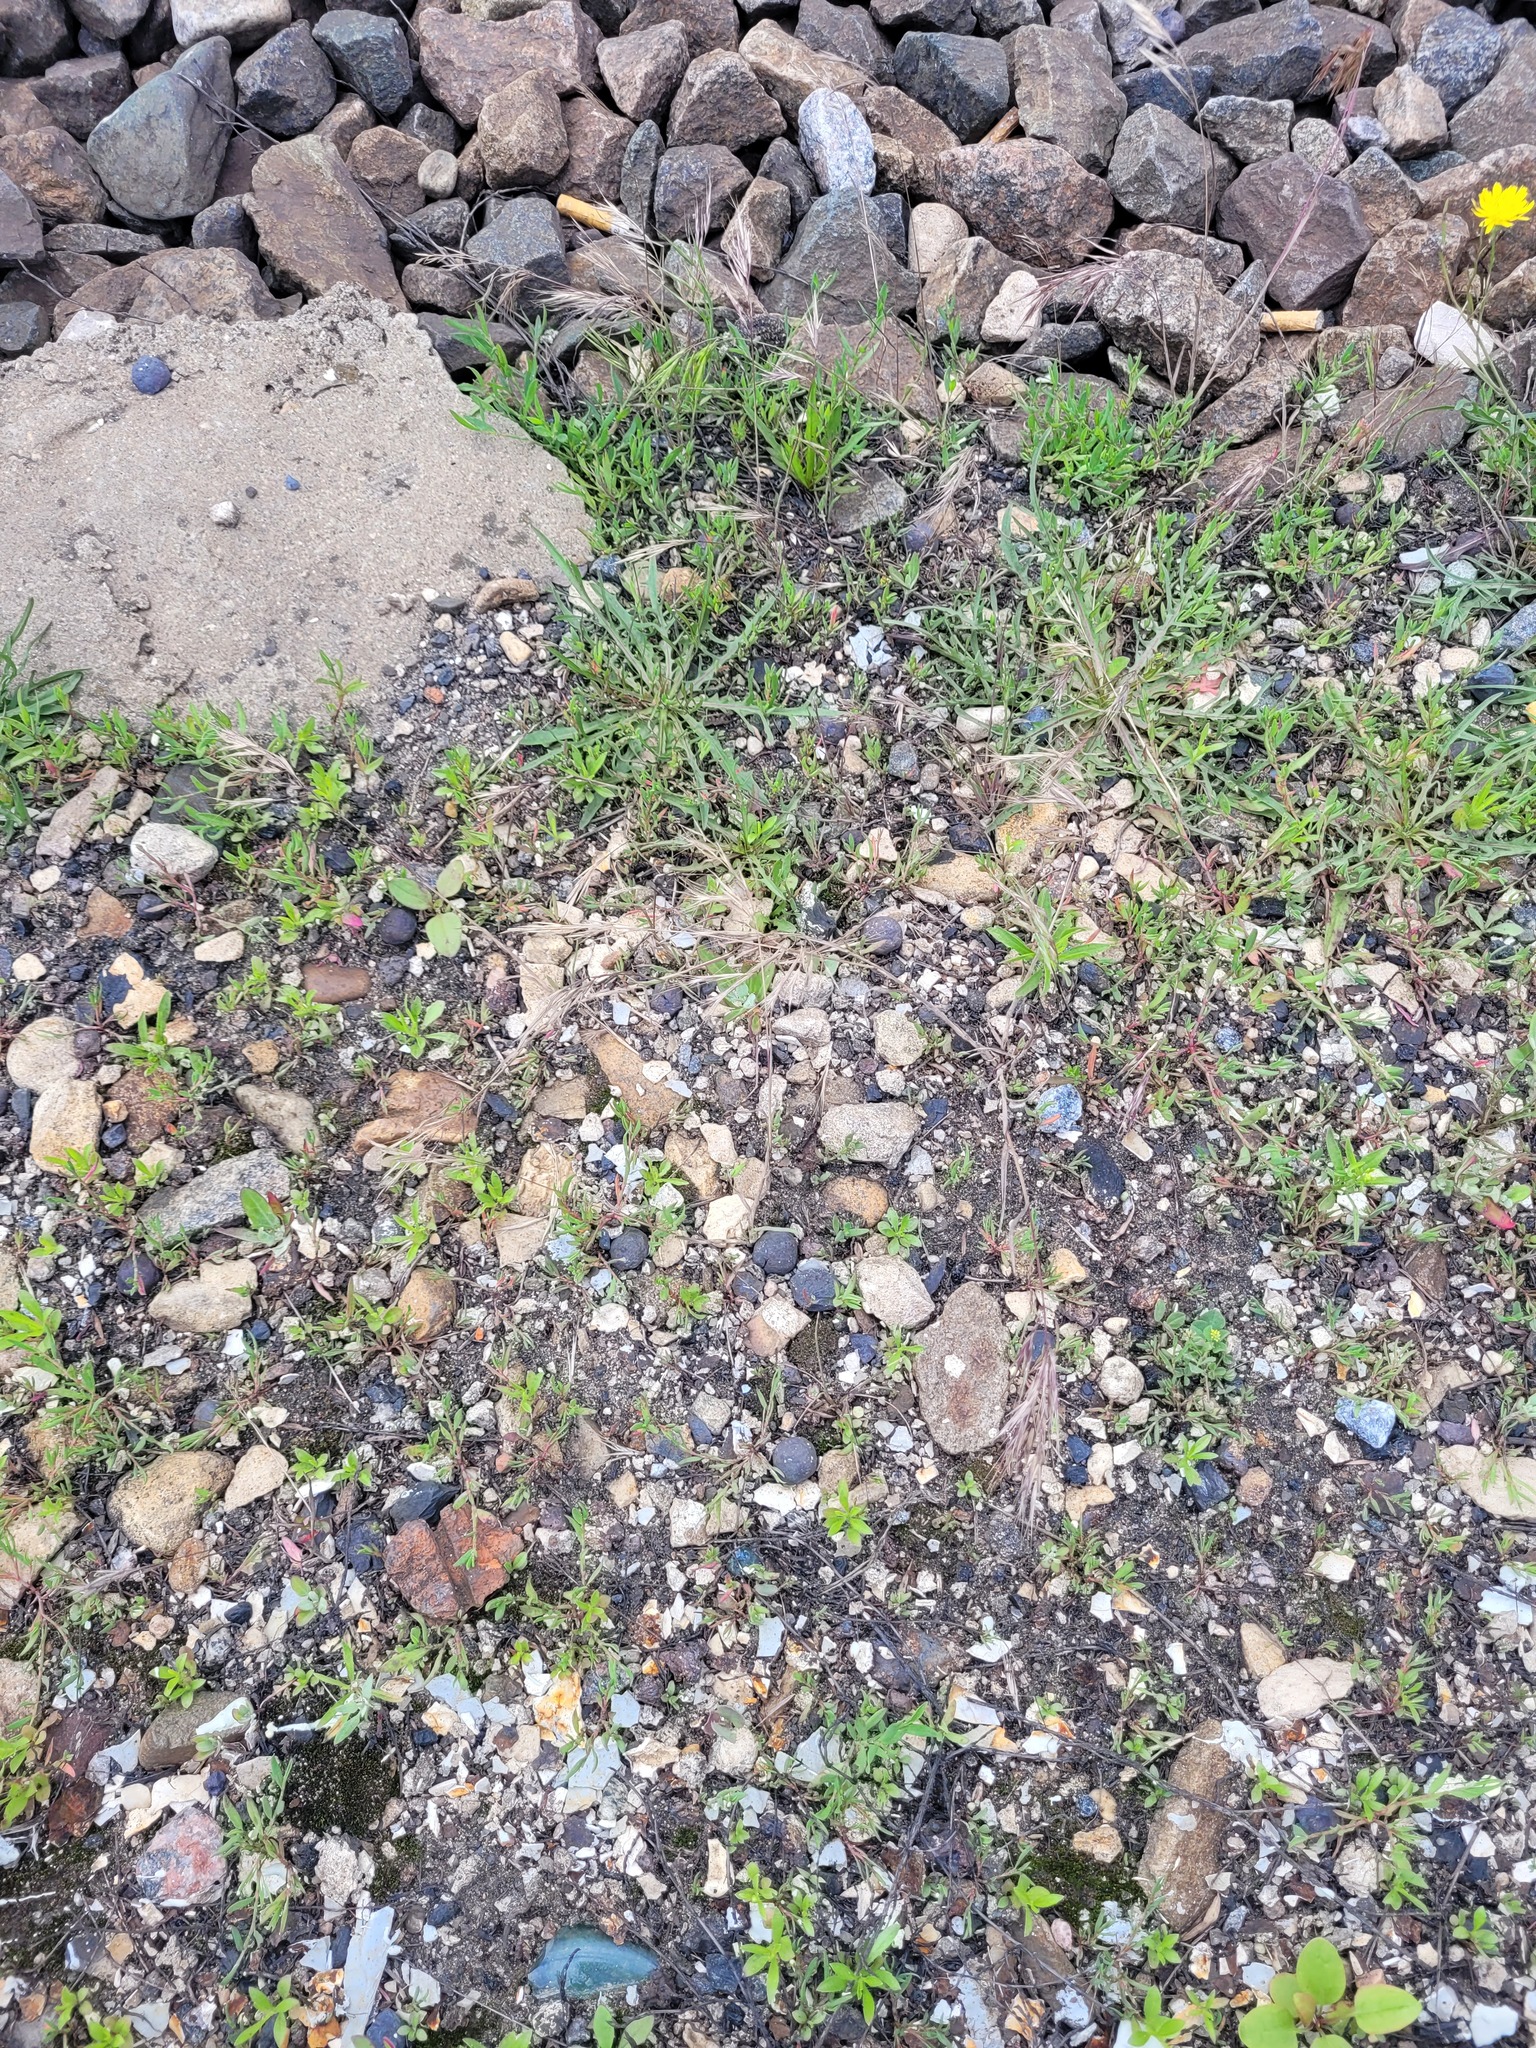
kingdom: Plantae
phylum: Tracheophyta
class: Liliopsida
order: Poales
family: Poaceae
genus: Bromus
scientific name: Bromus tectorum
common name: Cheatgrass
